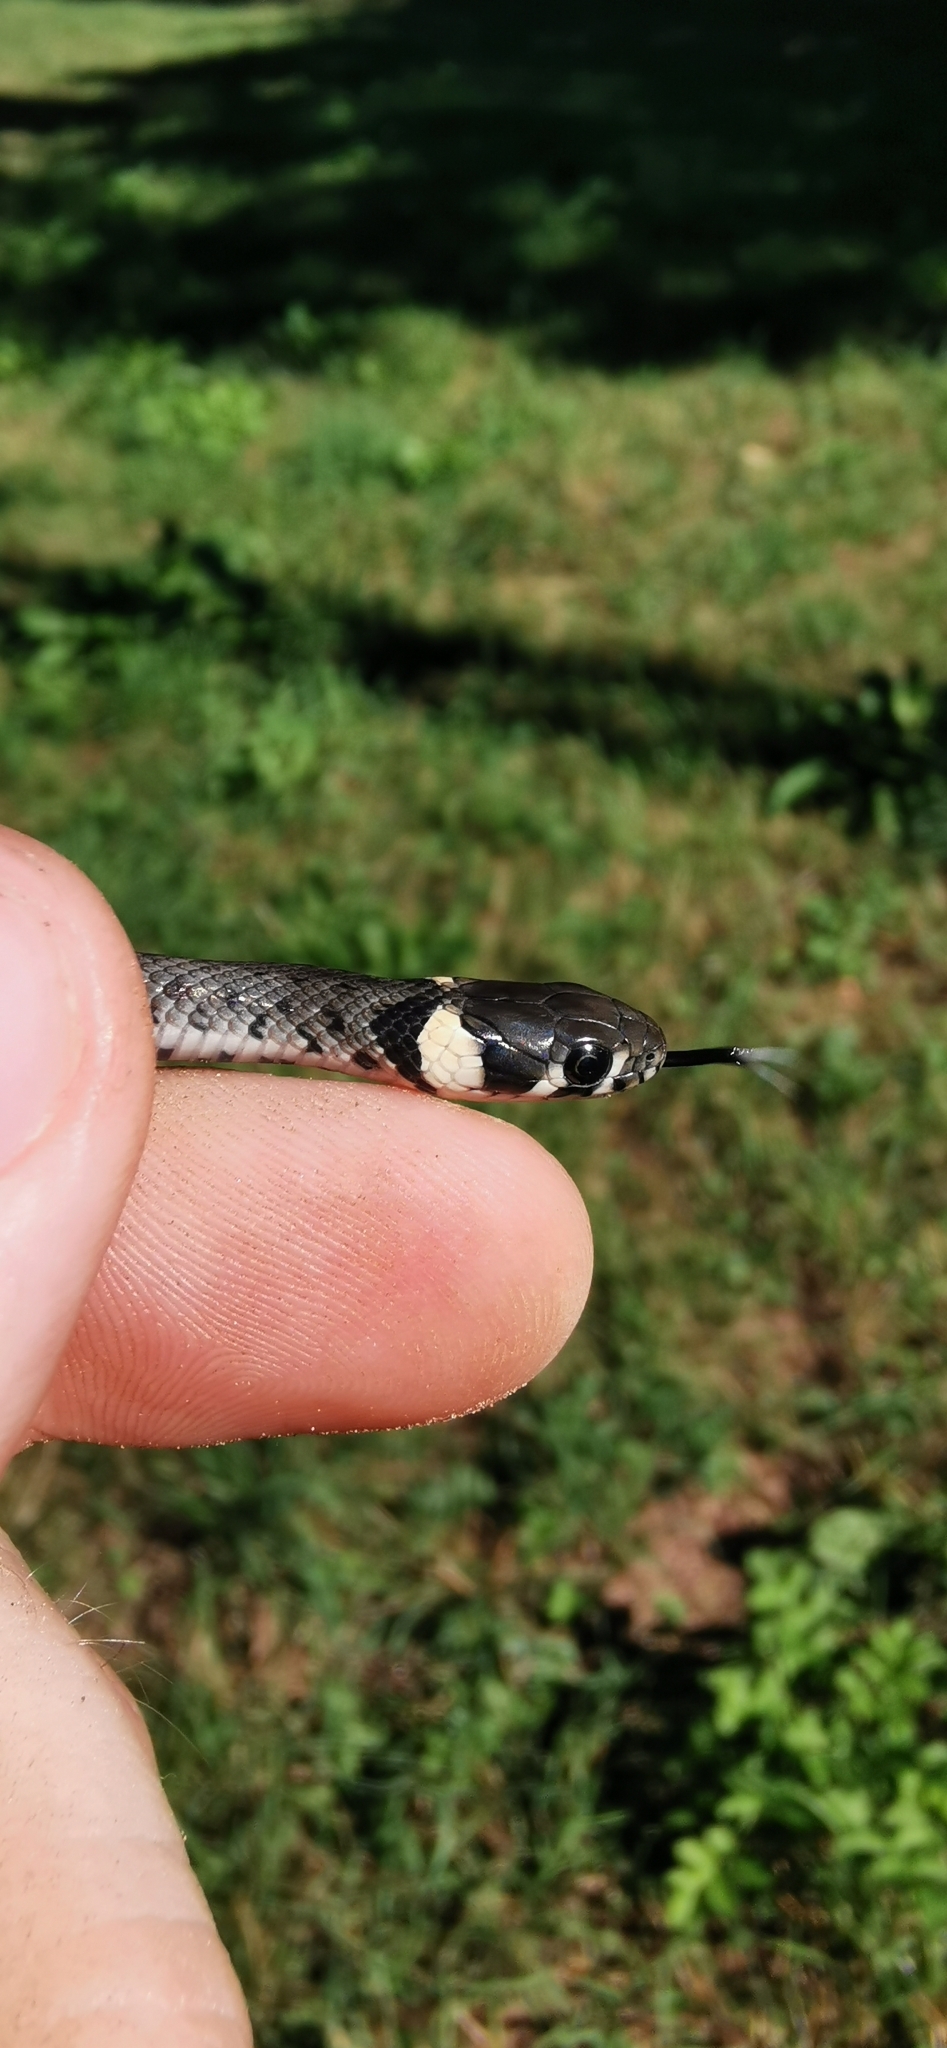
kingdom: Animalia
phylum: Chordata
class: Squamata
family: Colubridae
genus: Natrix
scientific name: Natrix natrix
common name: Grass snake
